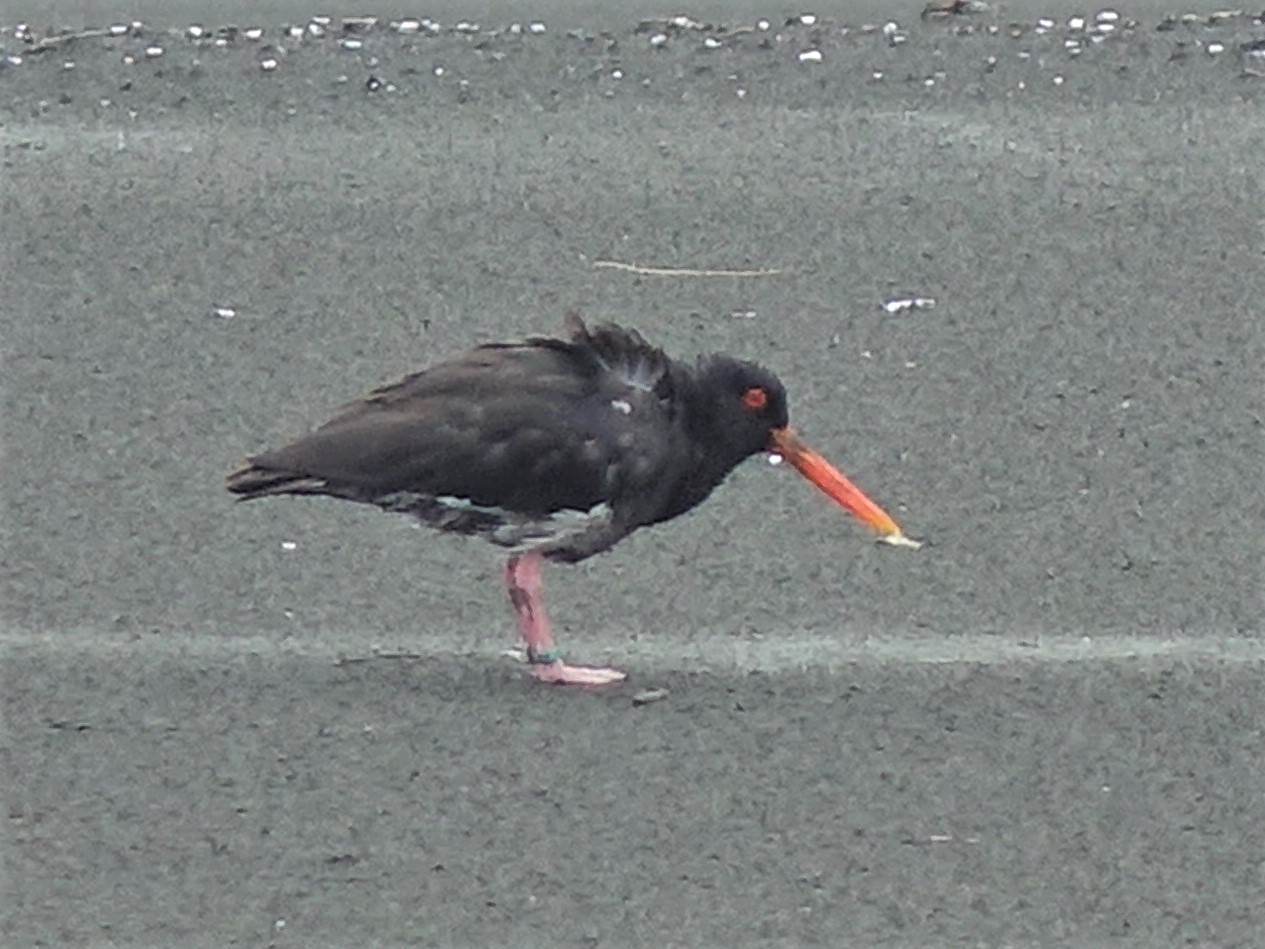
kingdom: Animalia
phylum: Chordata
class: Aves
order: Charadriiformes
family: Haematopodidae
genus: Haematopus
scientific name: Haematopus unicolor
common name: Variable oystercatcher
